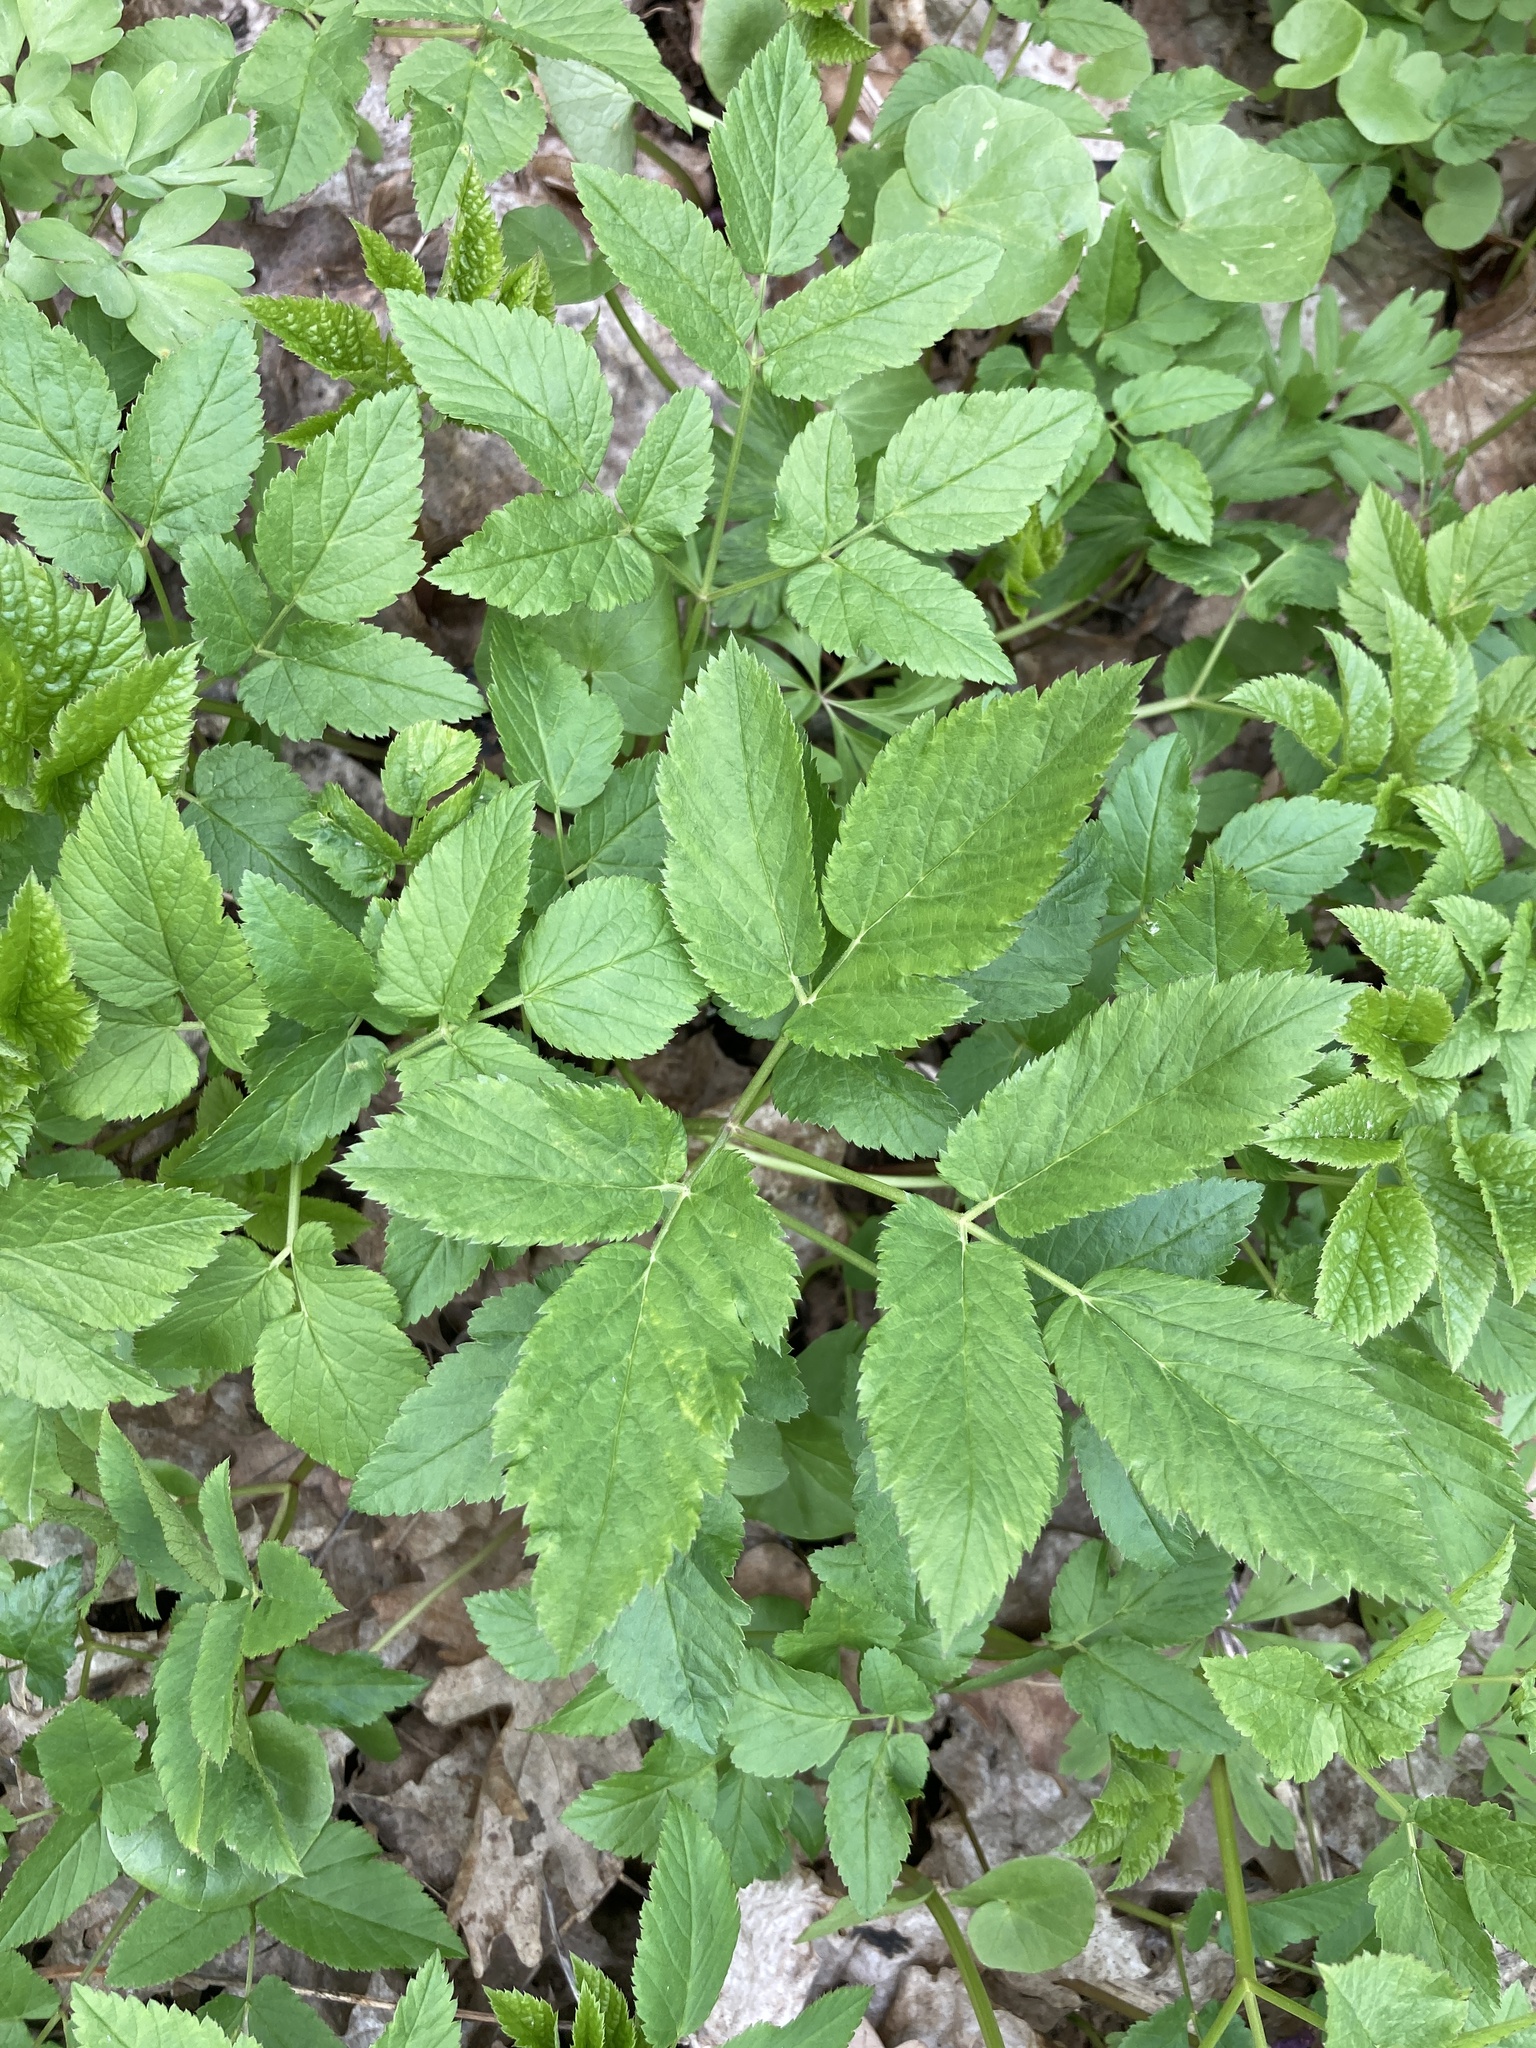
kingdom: Plantae
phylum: Tracheophyta
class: Magnoliopsida
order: Apiales
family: Apiaceae
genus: Aegopodium
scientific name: Aegopodium podagraria
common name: Ground-elder
